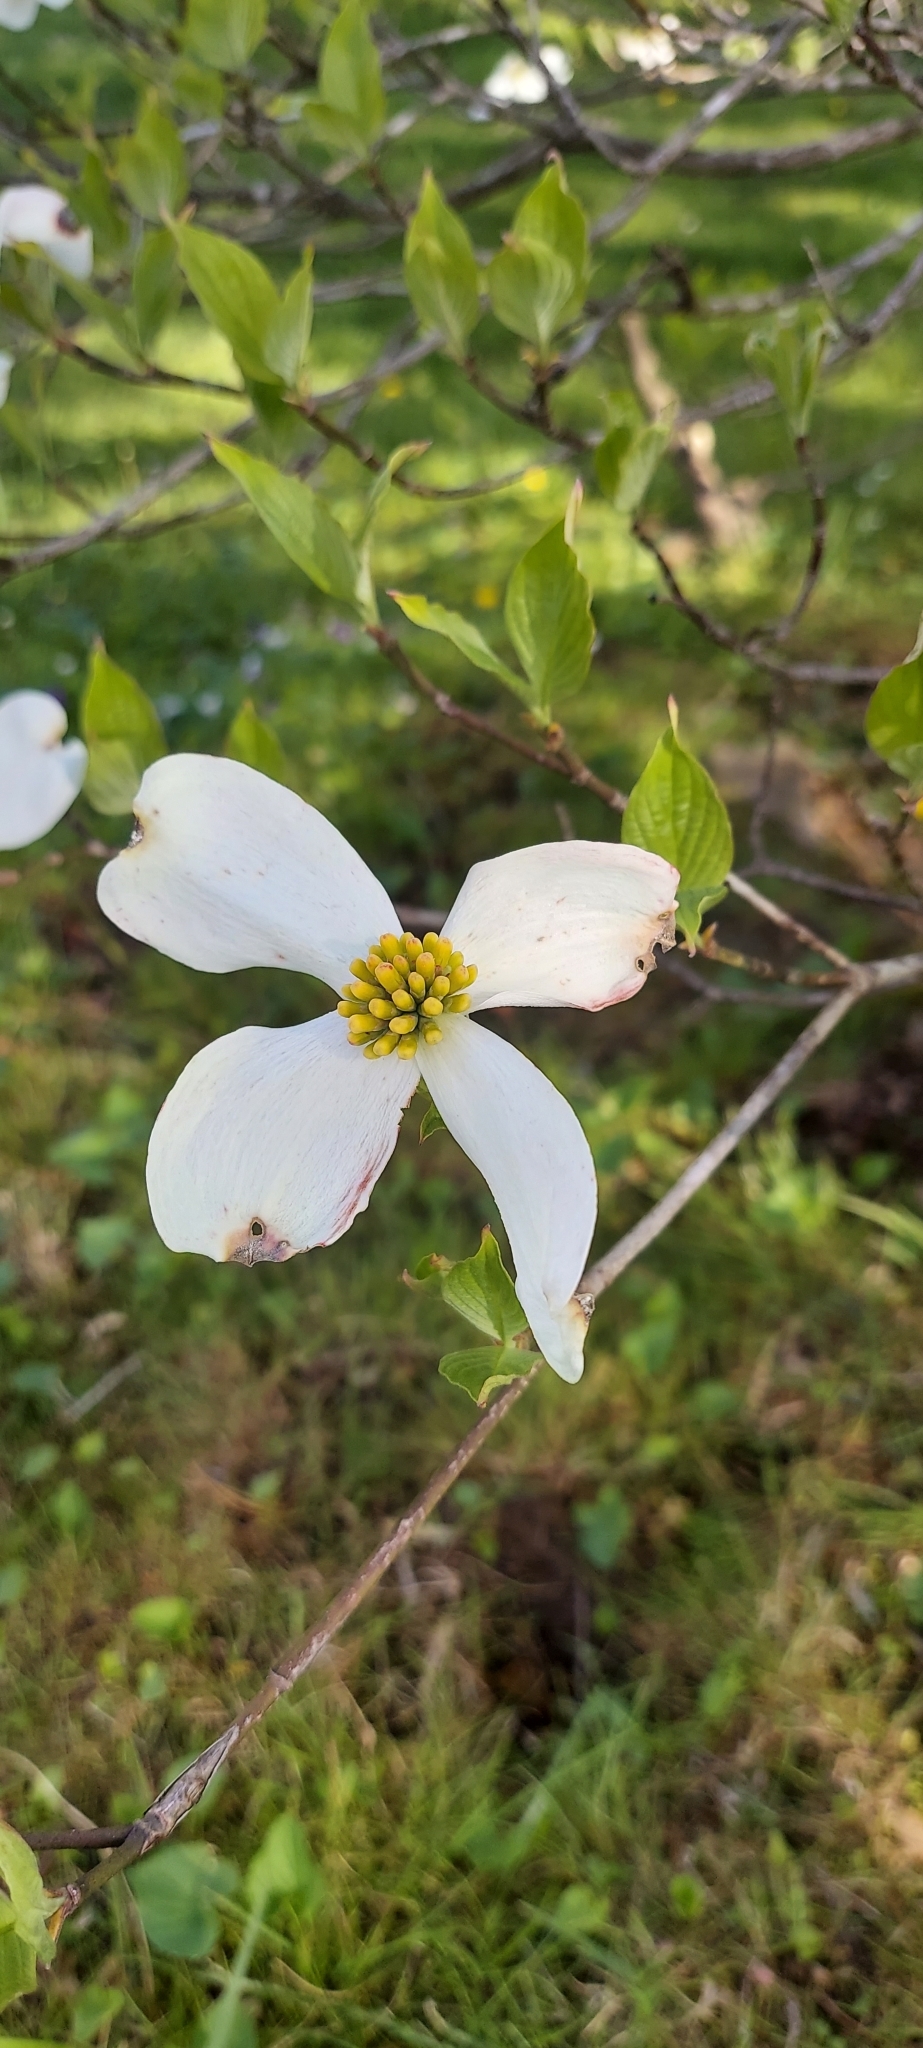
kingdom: Plantae
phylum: Tracheophyta
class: Magnoliopsida
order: Cornales
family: Cornaceae
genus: Cornus
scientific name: Cornus florida
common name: Flowering dogwood
